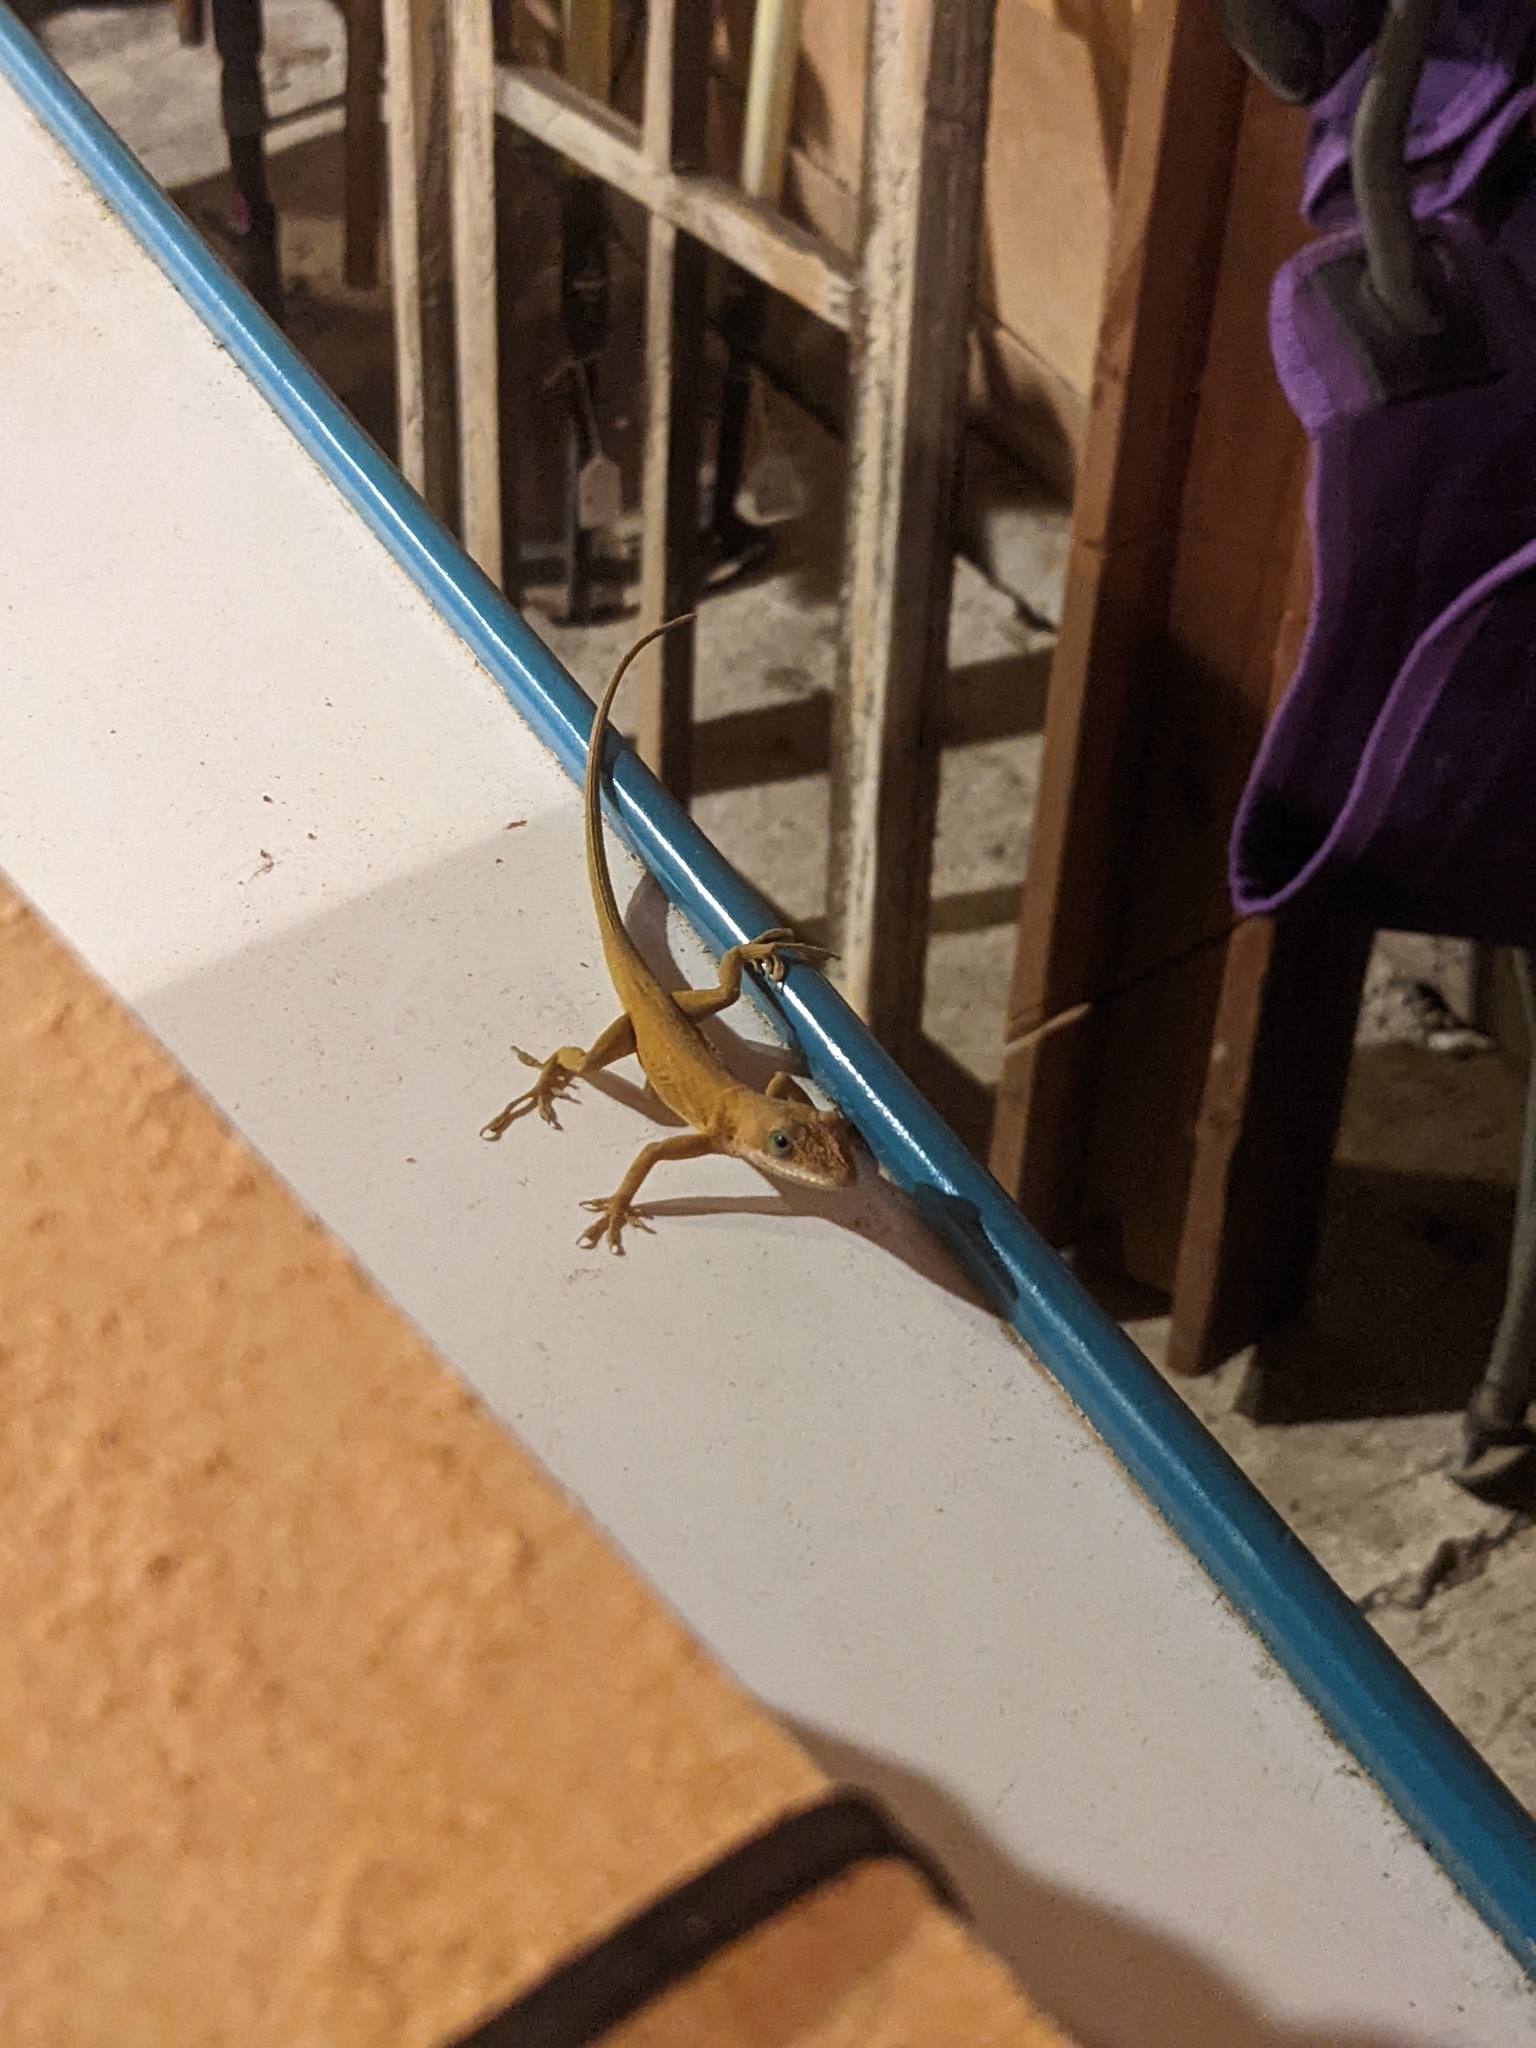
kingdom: Animalia
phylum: Chordata
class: Squamata
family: Dactyloidae
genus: Anolis
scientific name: Anolis carolinensis
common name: Green anole
